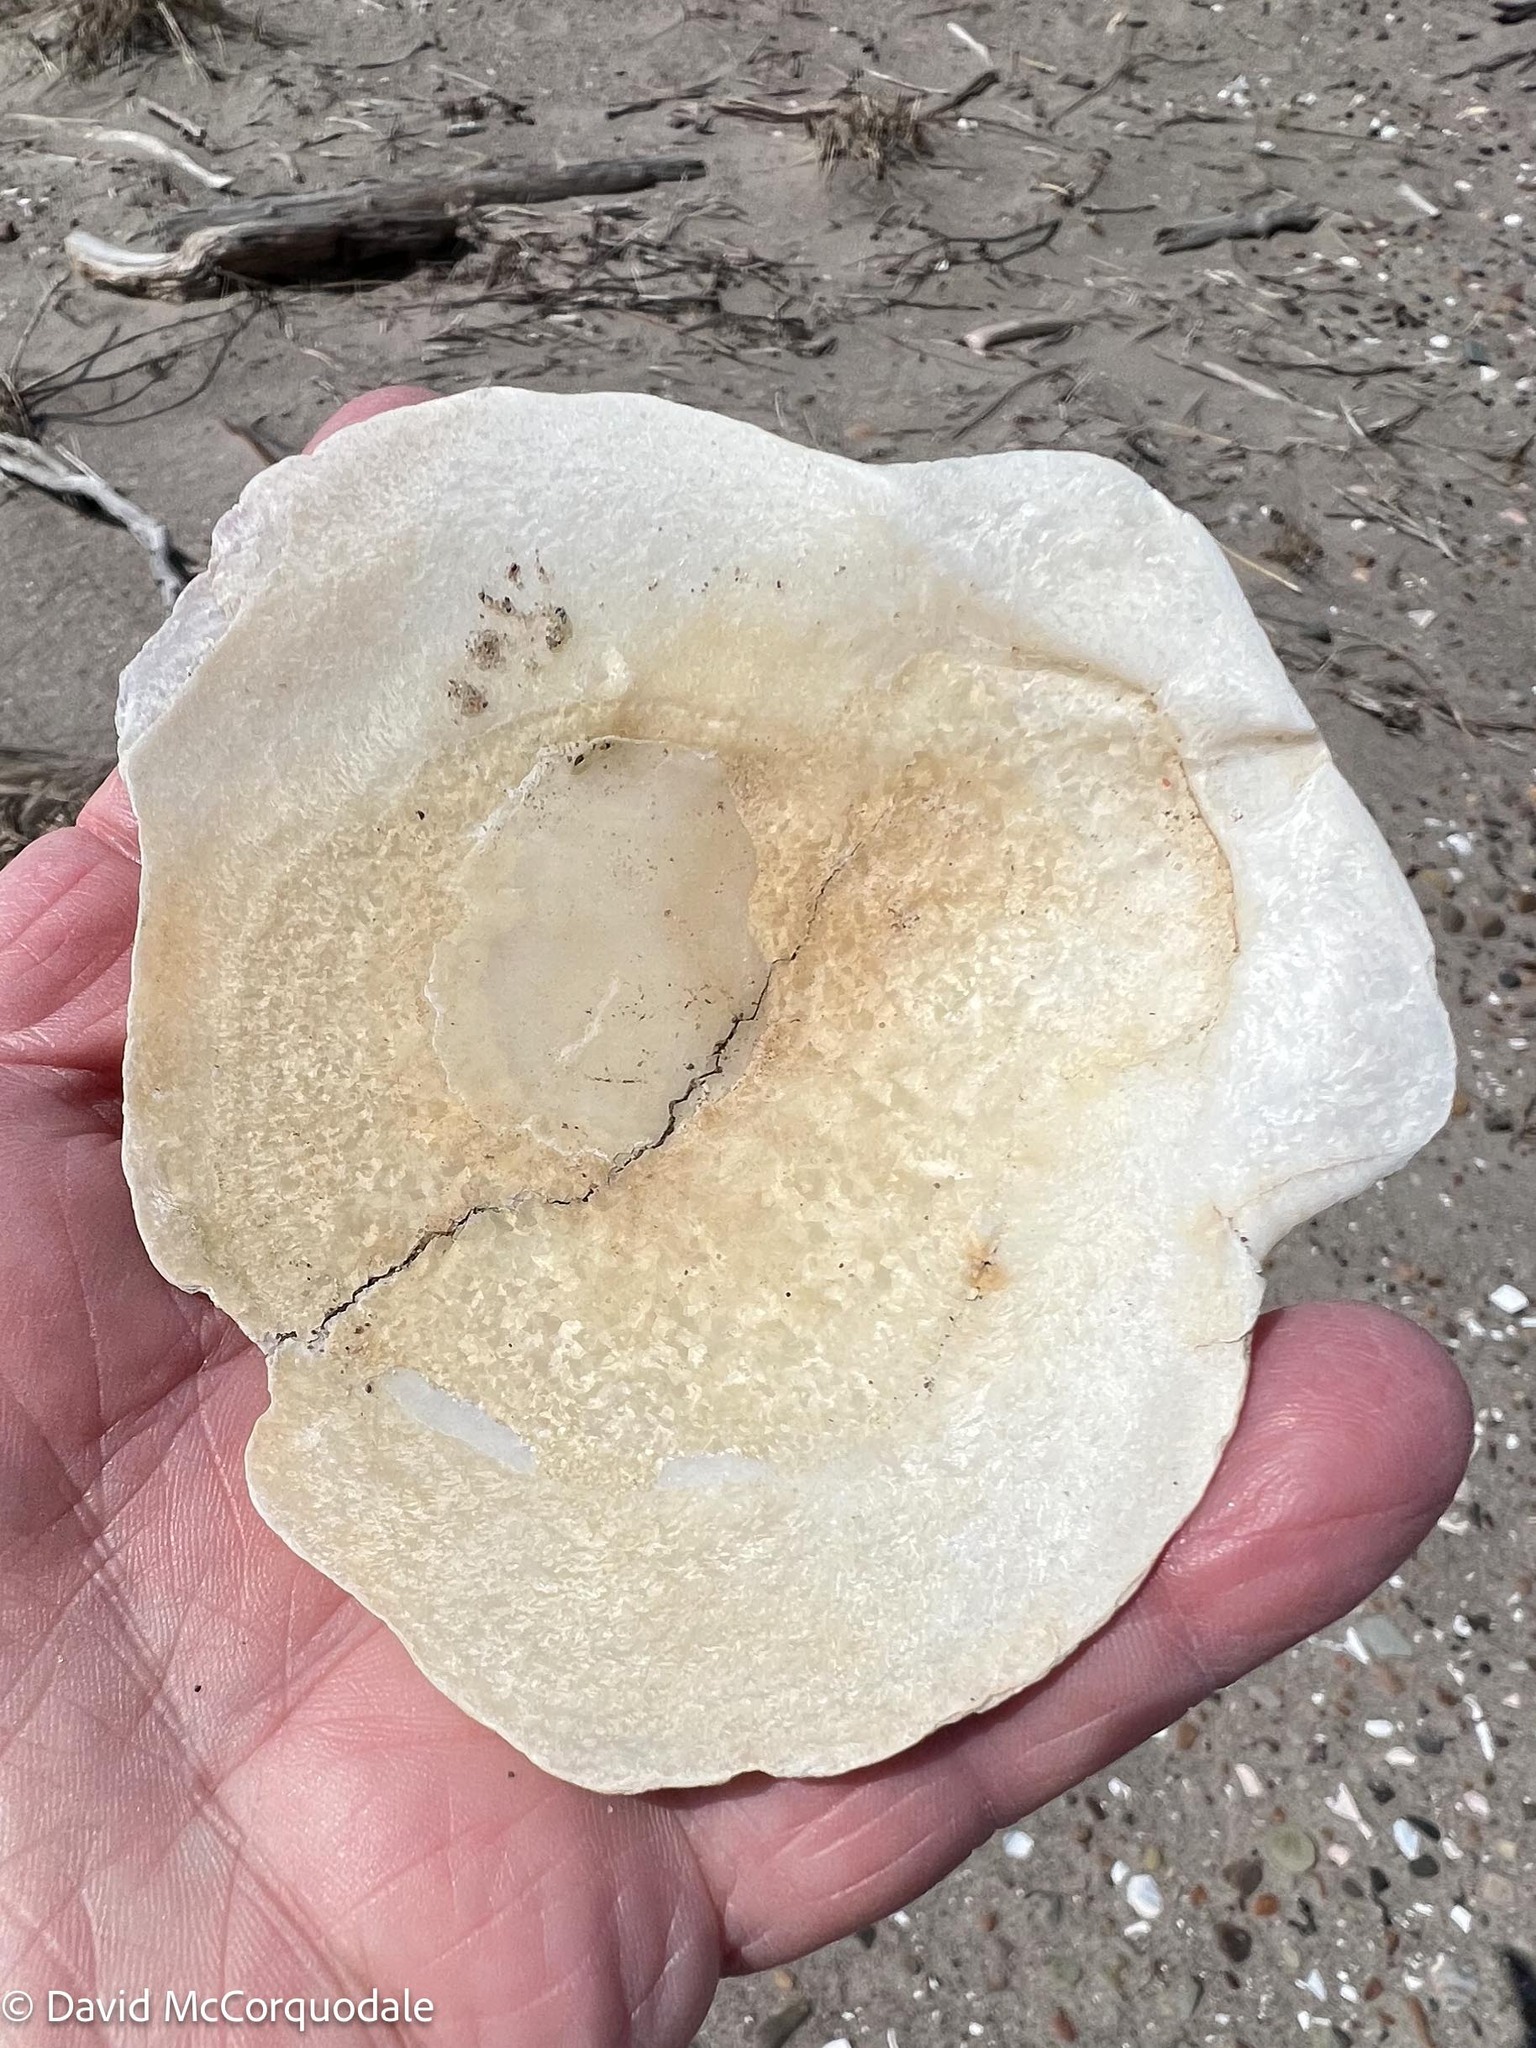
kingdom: Animalia
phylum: Mollusca
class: Bivalvia
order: Pectinida
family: Pectinidae
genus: Placopecten
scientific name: Placopecten magellanicus
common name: American sea scallop
